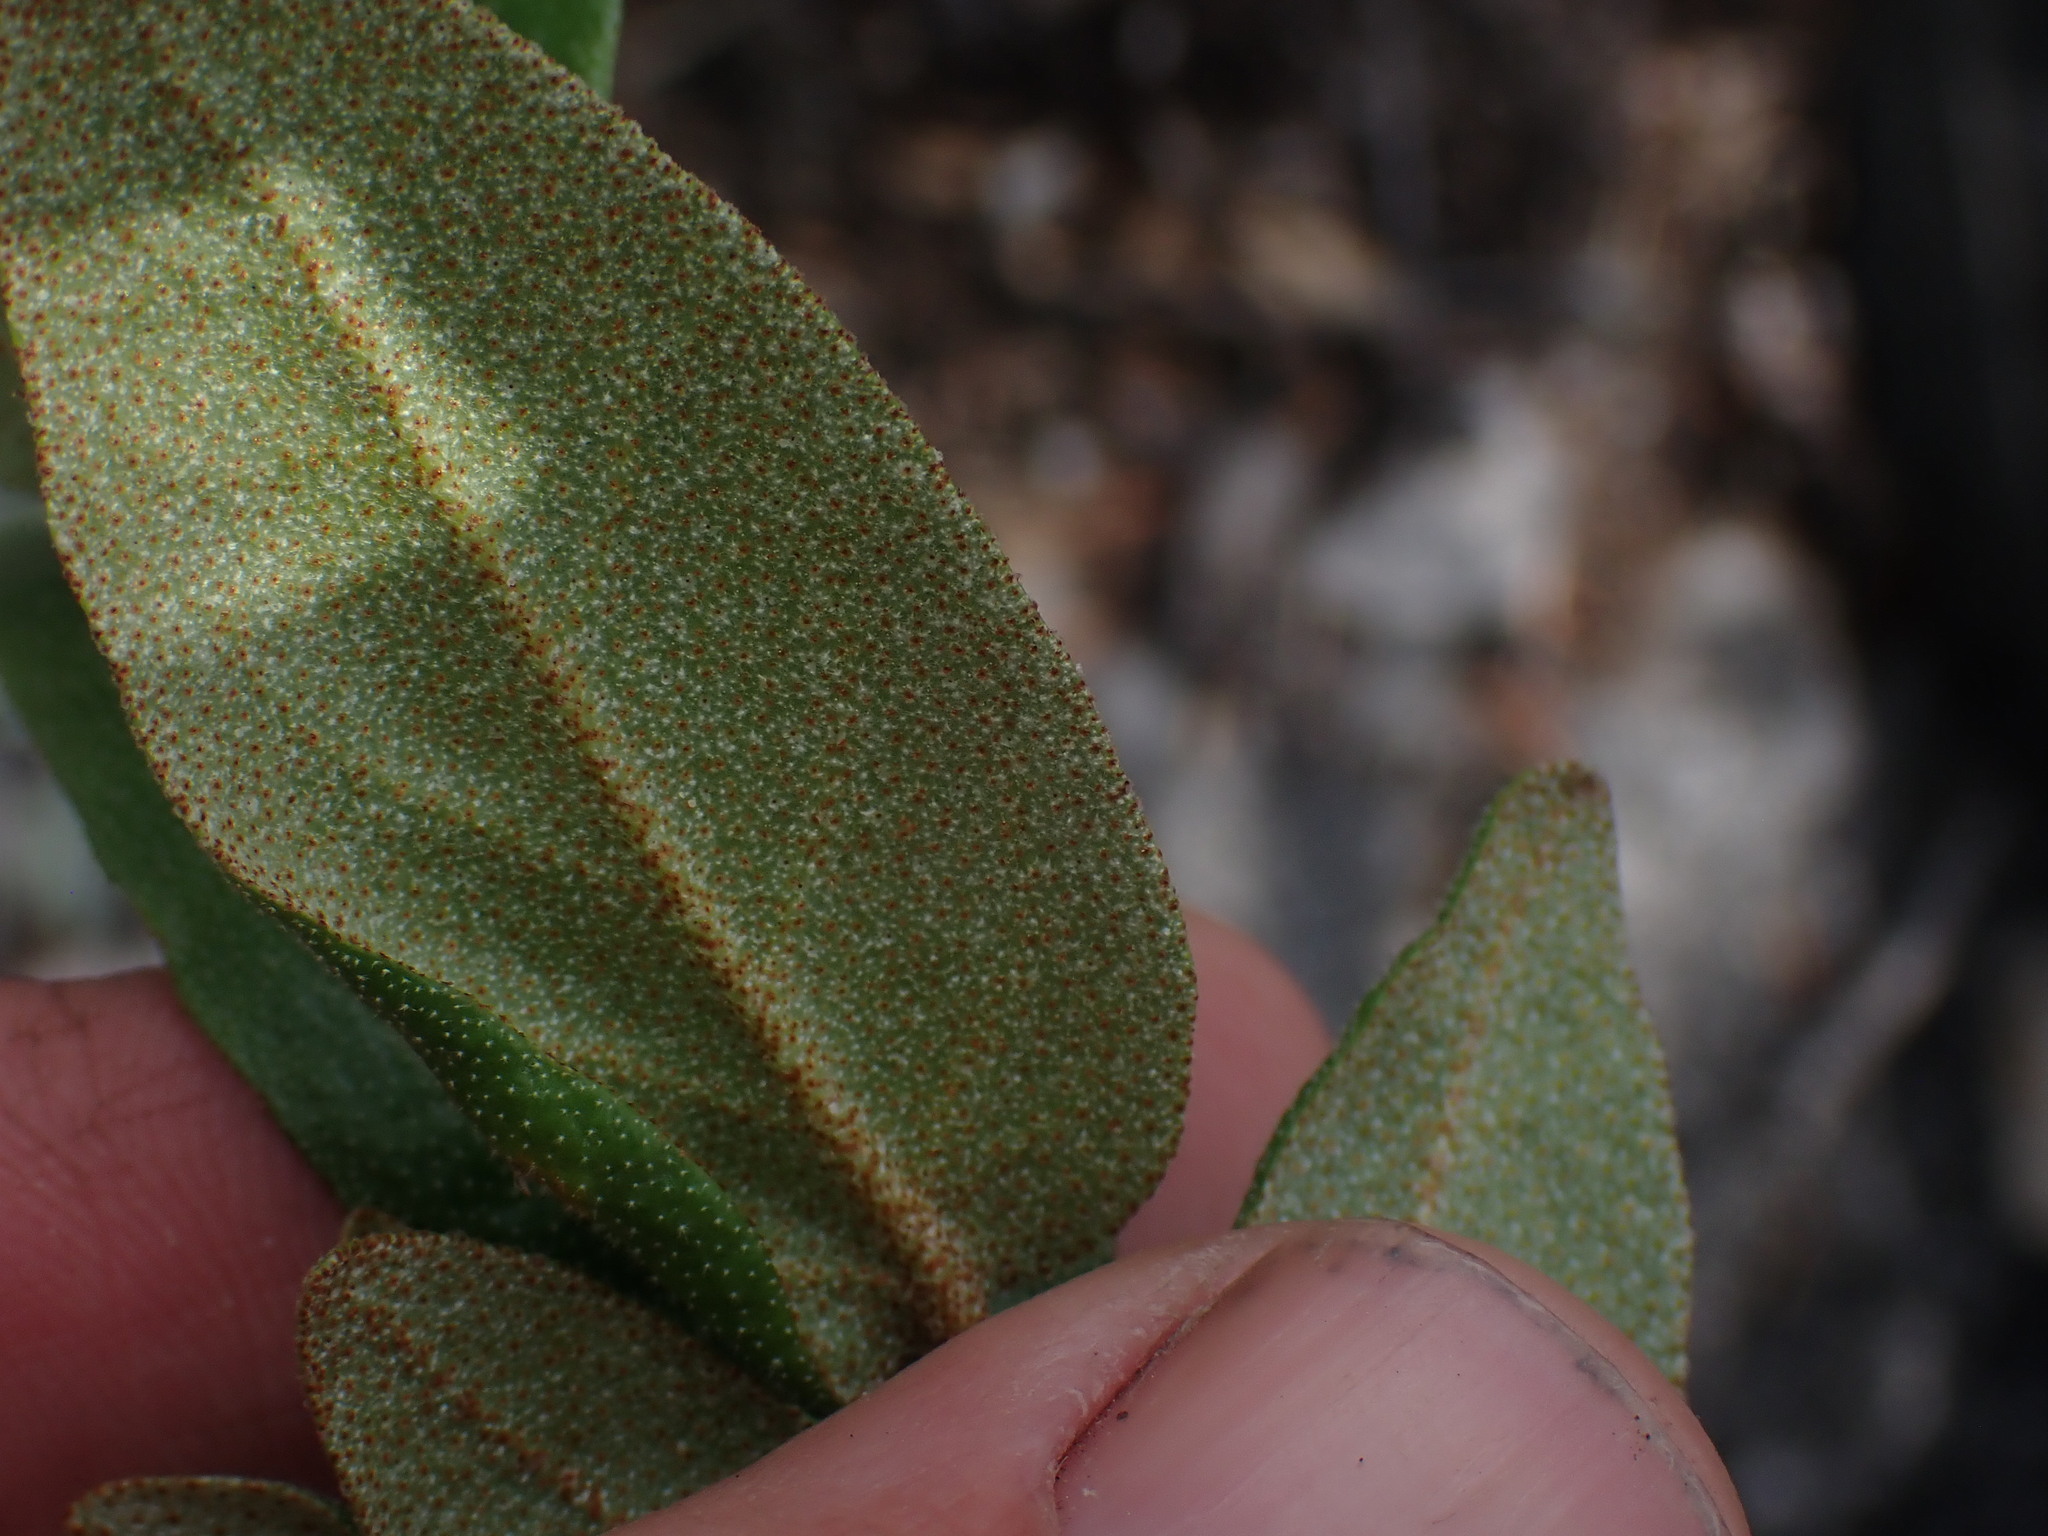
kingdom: Plantae
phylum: Tracheophyta
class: Magnoliopsida
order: Rosales
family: Elaeagnaceae
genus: Shepherdia
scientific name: Shepherdia canadensis
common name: Soapberry
